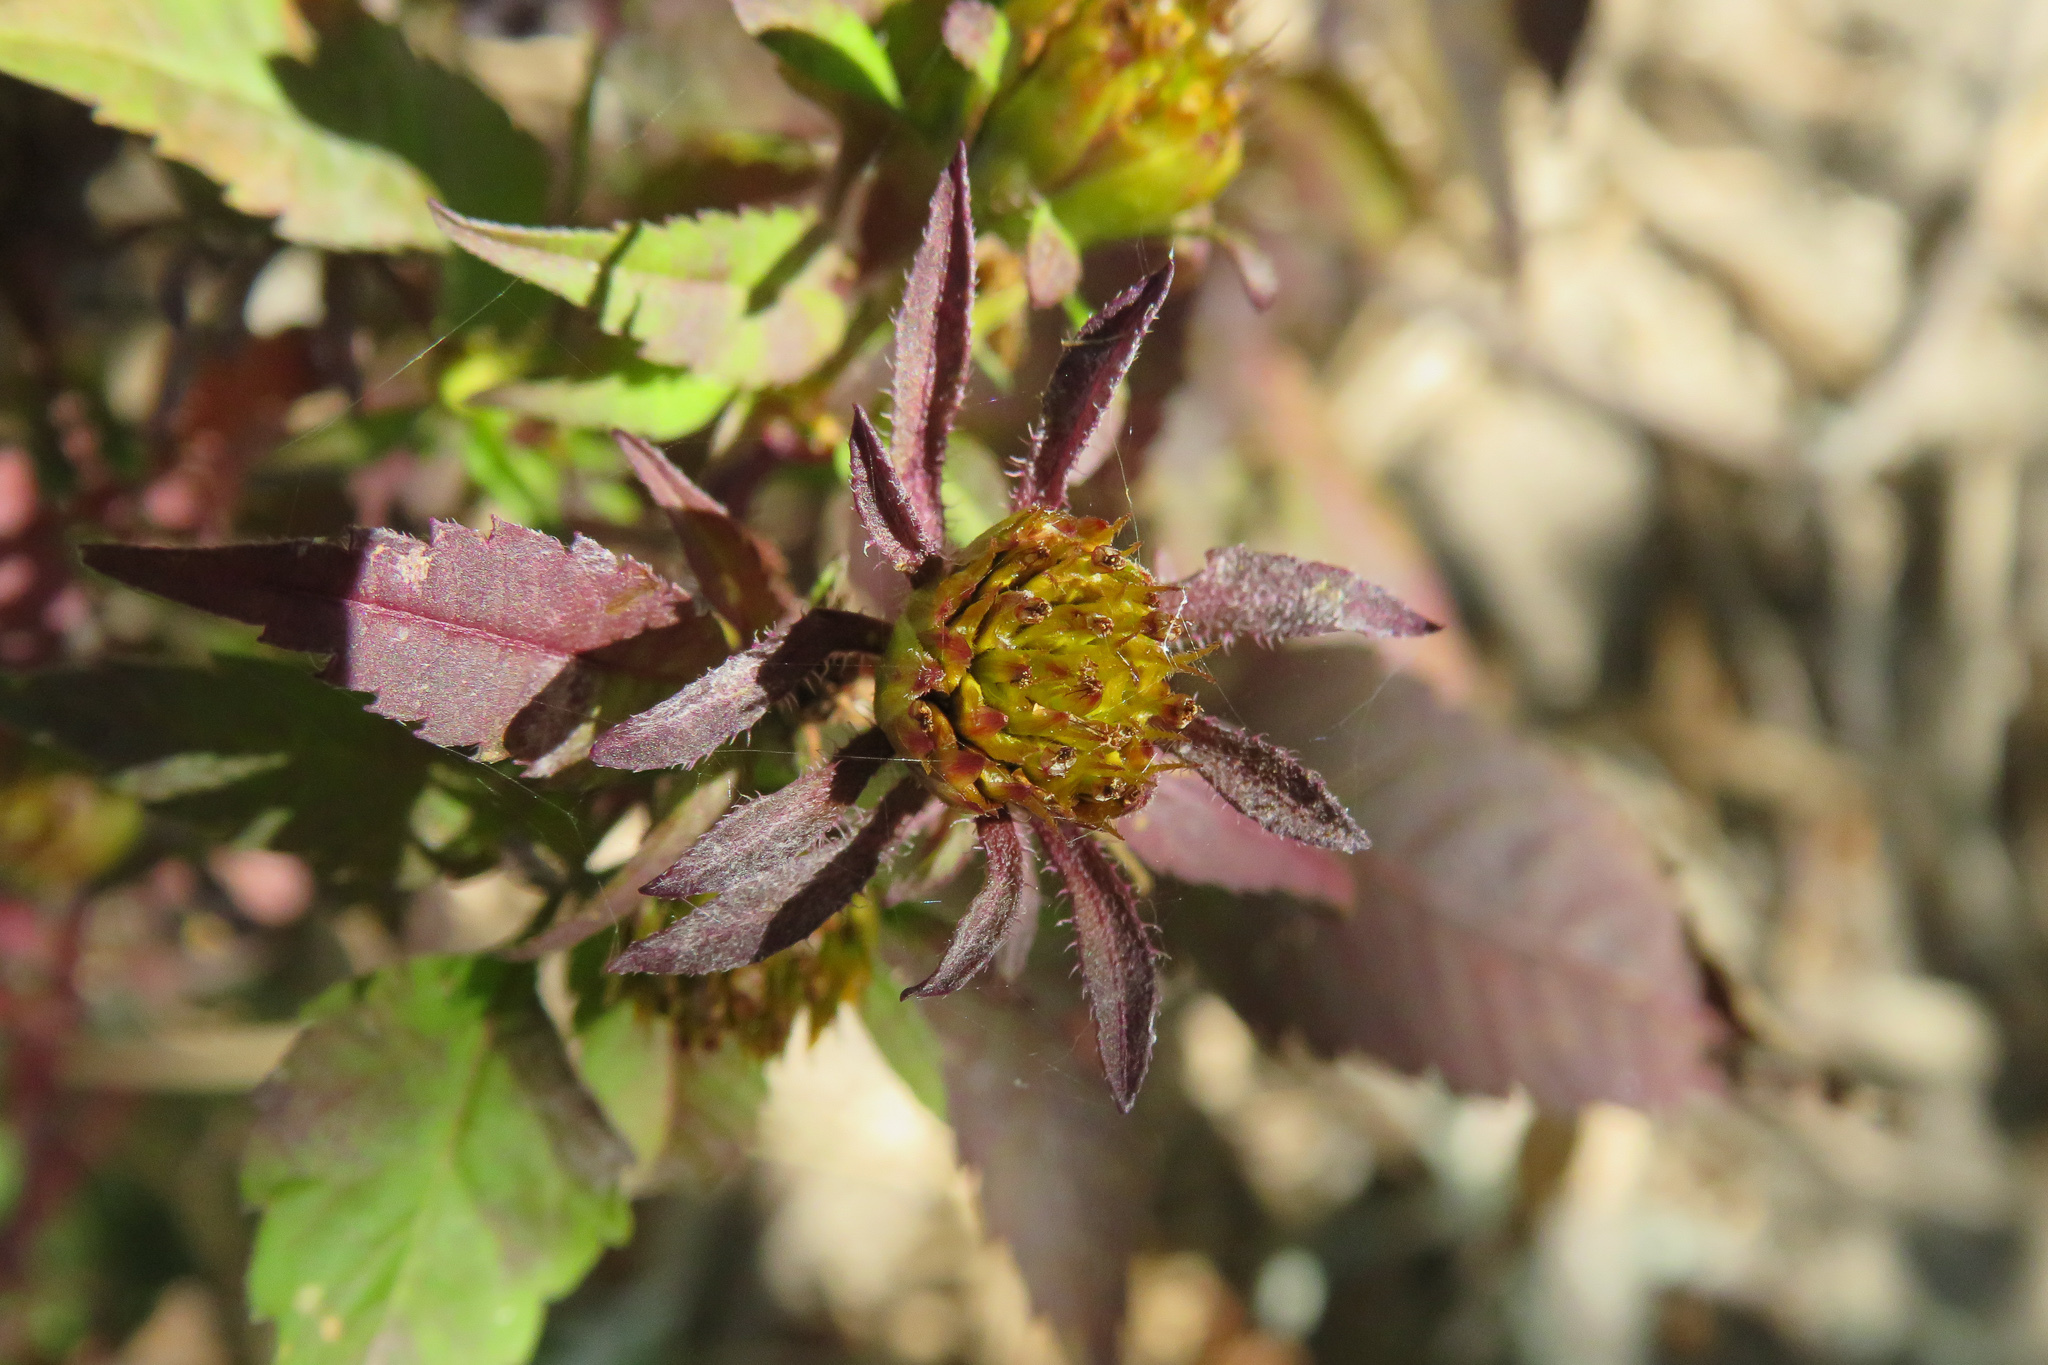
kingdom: Plantae
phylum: Tracheophyta
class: Magnoliopsida
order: Asterales
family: Asteraceae
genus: Bidens
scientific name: Bidens frondosa
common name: Beggarticks
